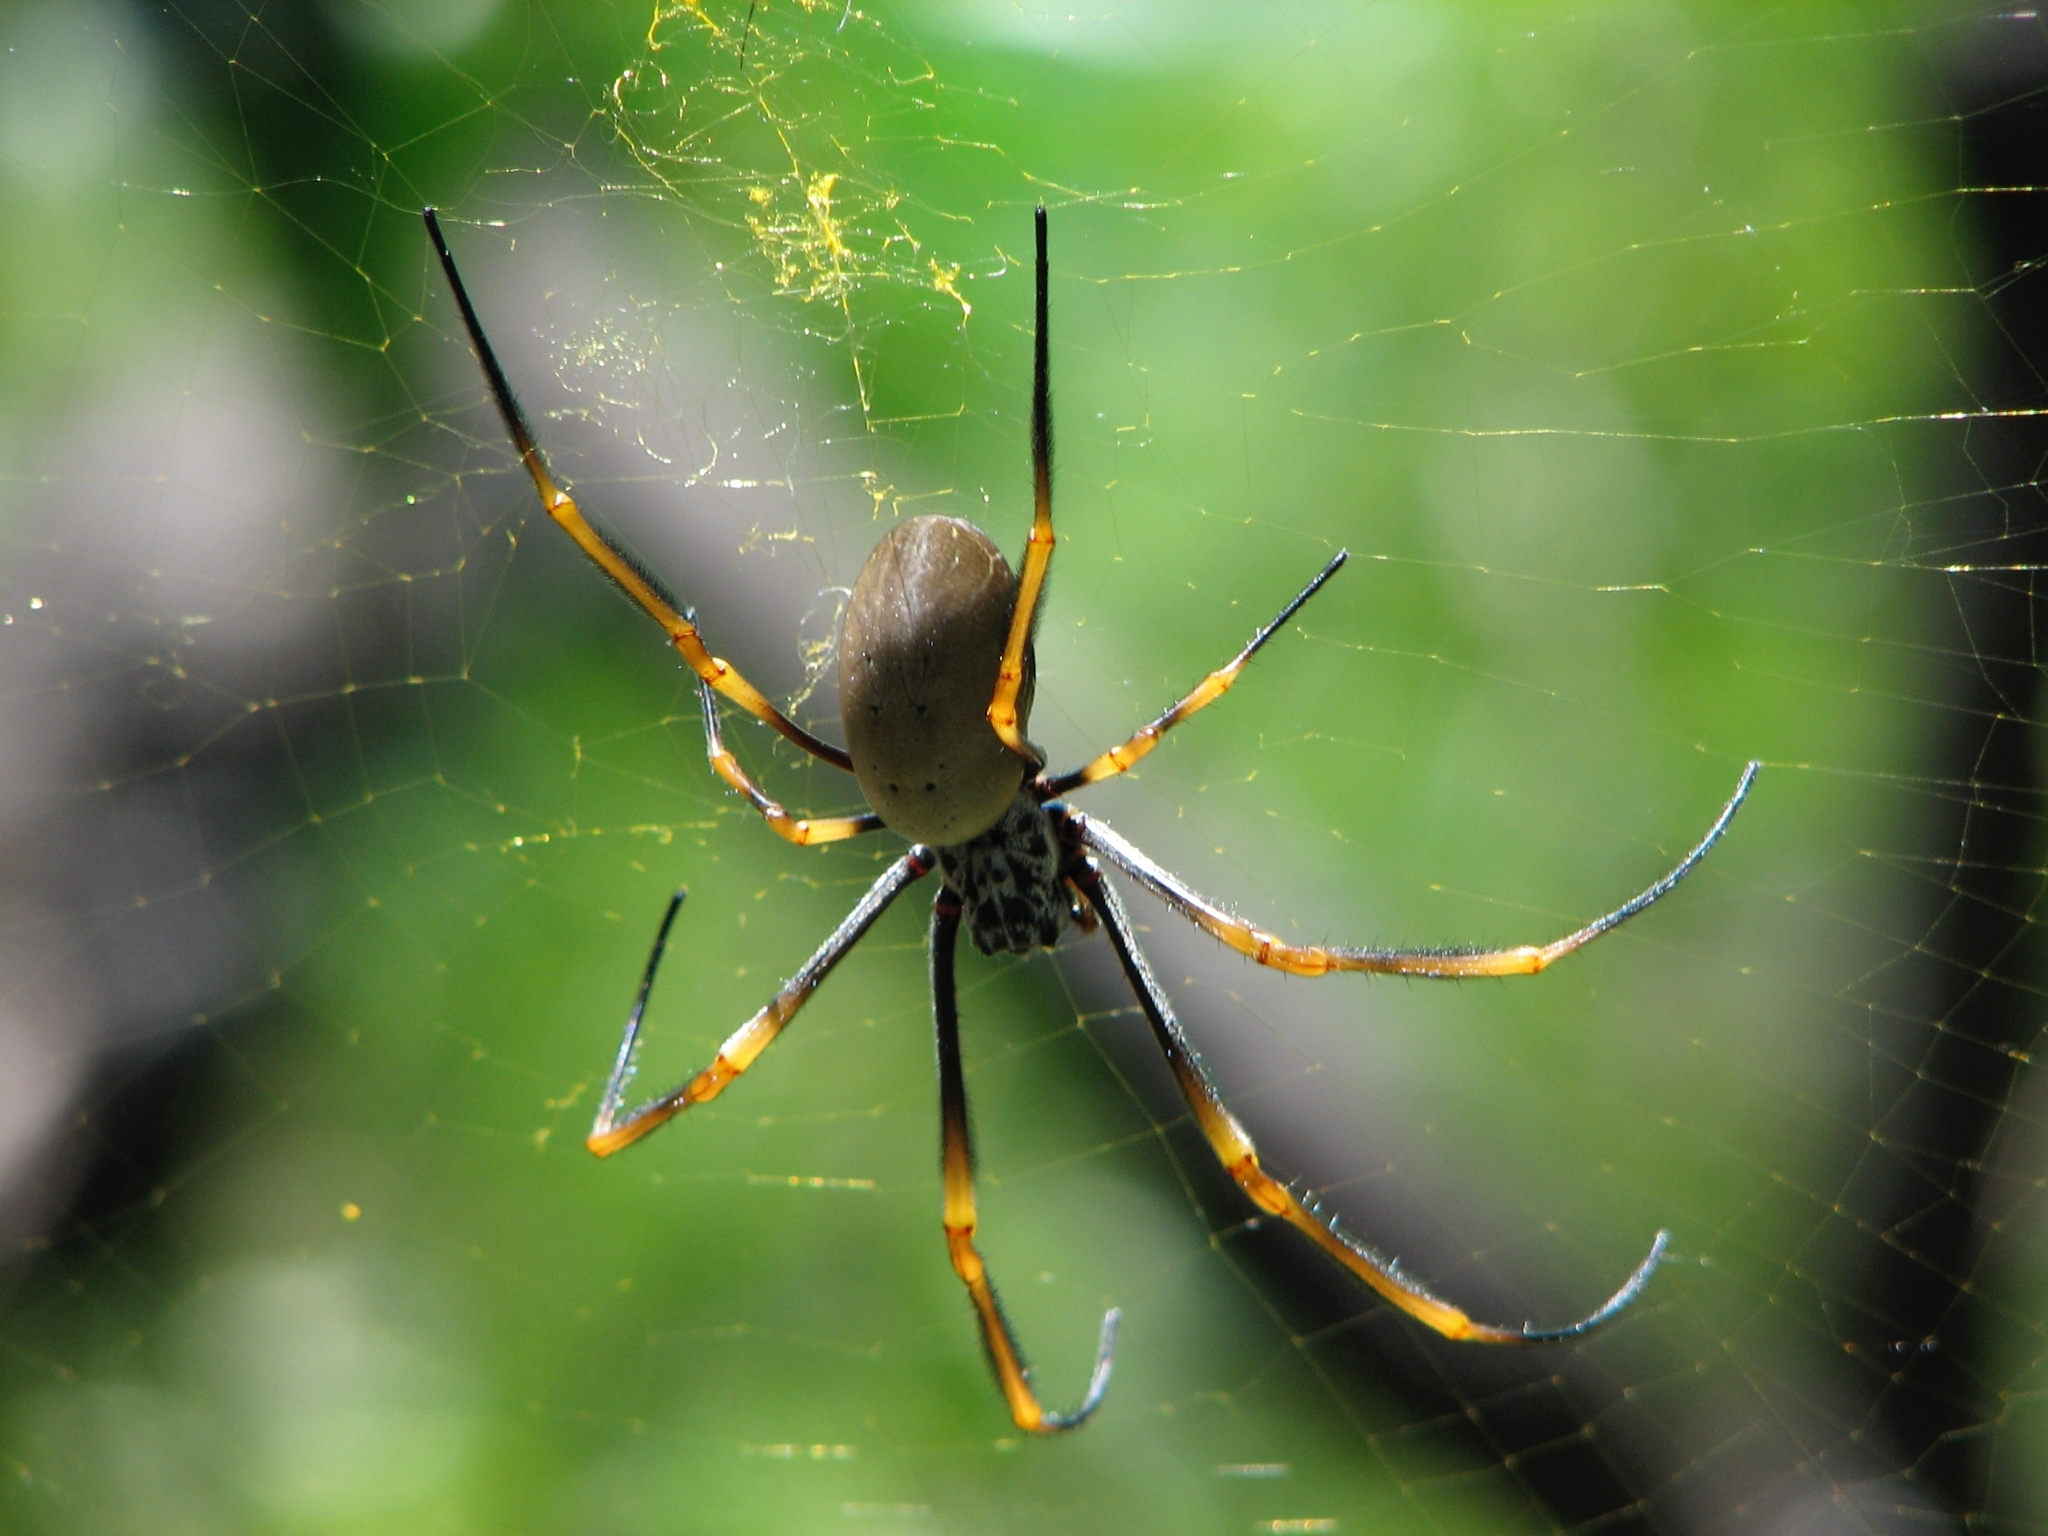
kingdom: Animalia
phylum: Arthropoda
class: Arachnida
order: Araneae
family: Araneidae
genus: Trichonephila
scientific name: Trichonephila plumipes
